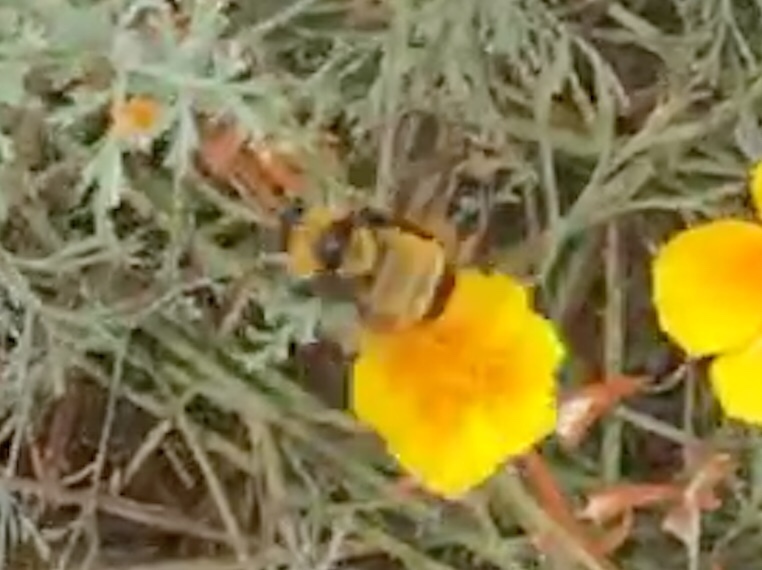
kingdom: Animalia
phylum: Arthropoda
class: Insecta
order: Hymenoptera
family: Apidae
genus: Bombus
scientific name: Bombus sonorus
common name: Sonoran bumble bee
